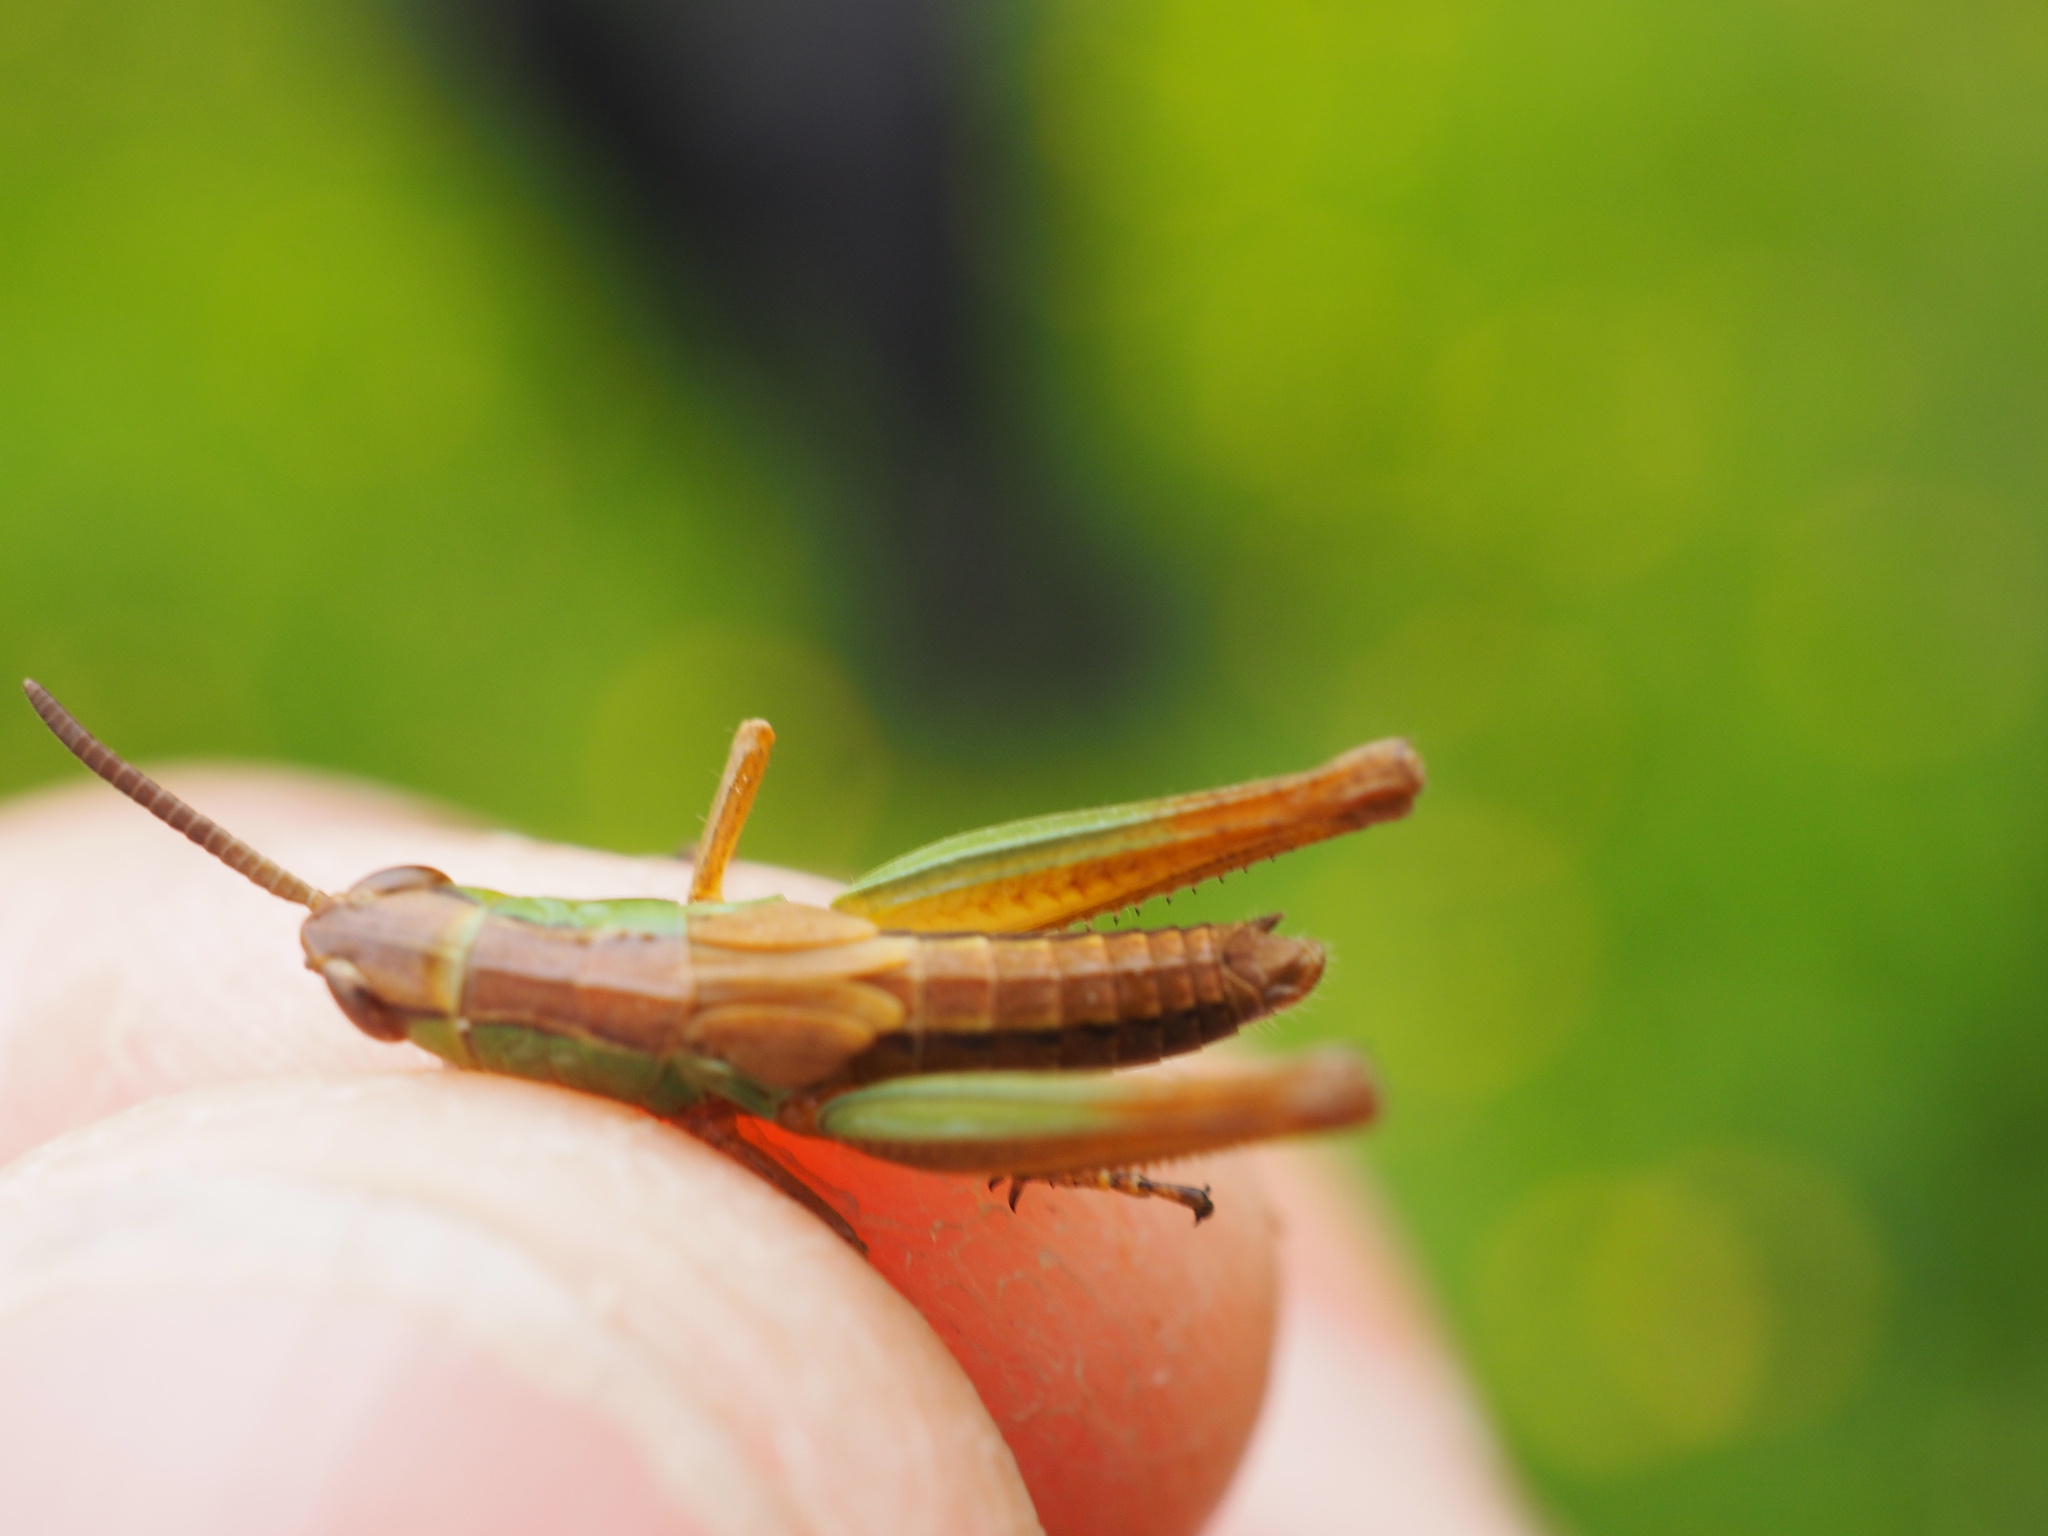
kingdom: Animalia
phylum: Arthropoda
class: Insecta
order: Orthoptera
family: Acrididae
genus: Pseudochorthippus
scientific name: Pseudochorthippus parallelus
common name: Meadow grasshopper
